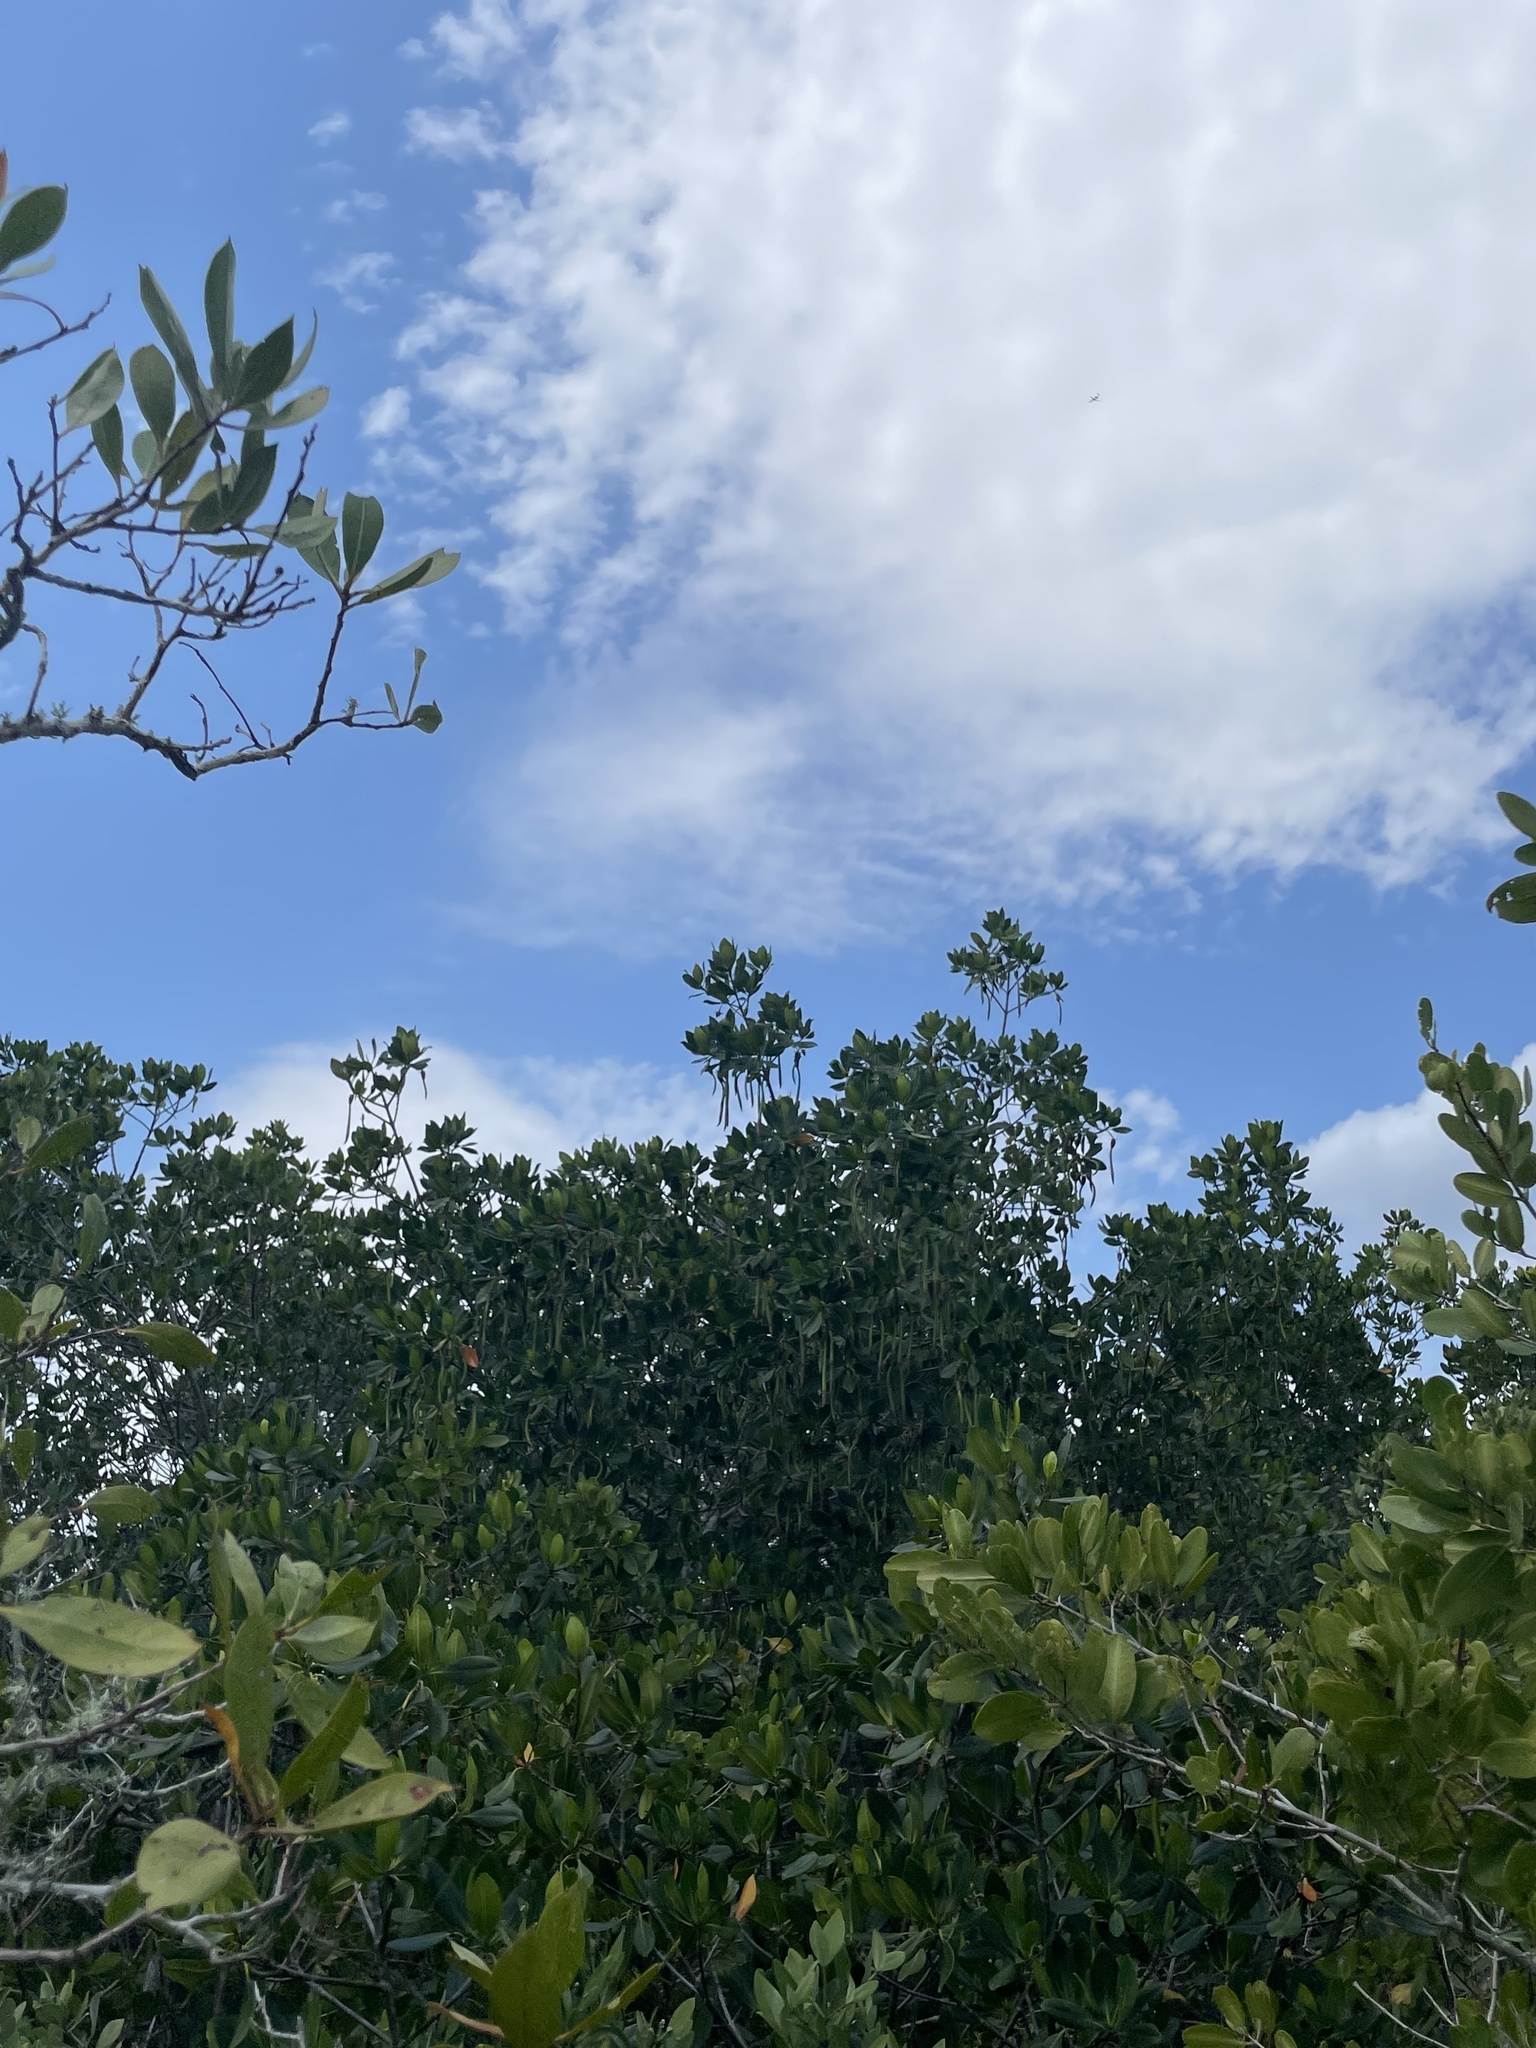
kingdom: Plantae
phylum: Tracheophyta
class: Magnoliopsida
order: Malpighiales
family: Rhizophoraceae
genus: Rhizophora
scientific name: Rhizophora mangle
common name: Red mangrove
